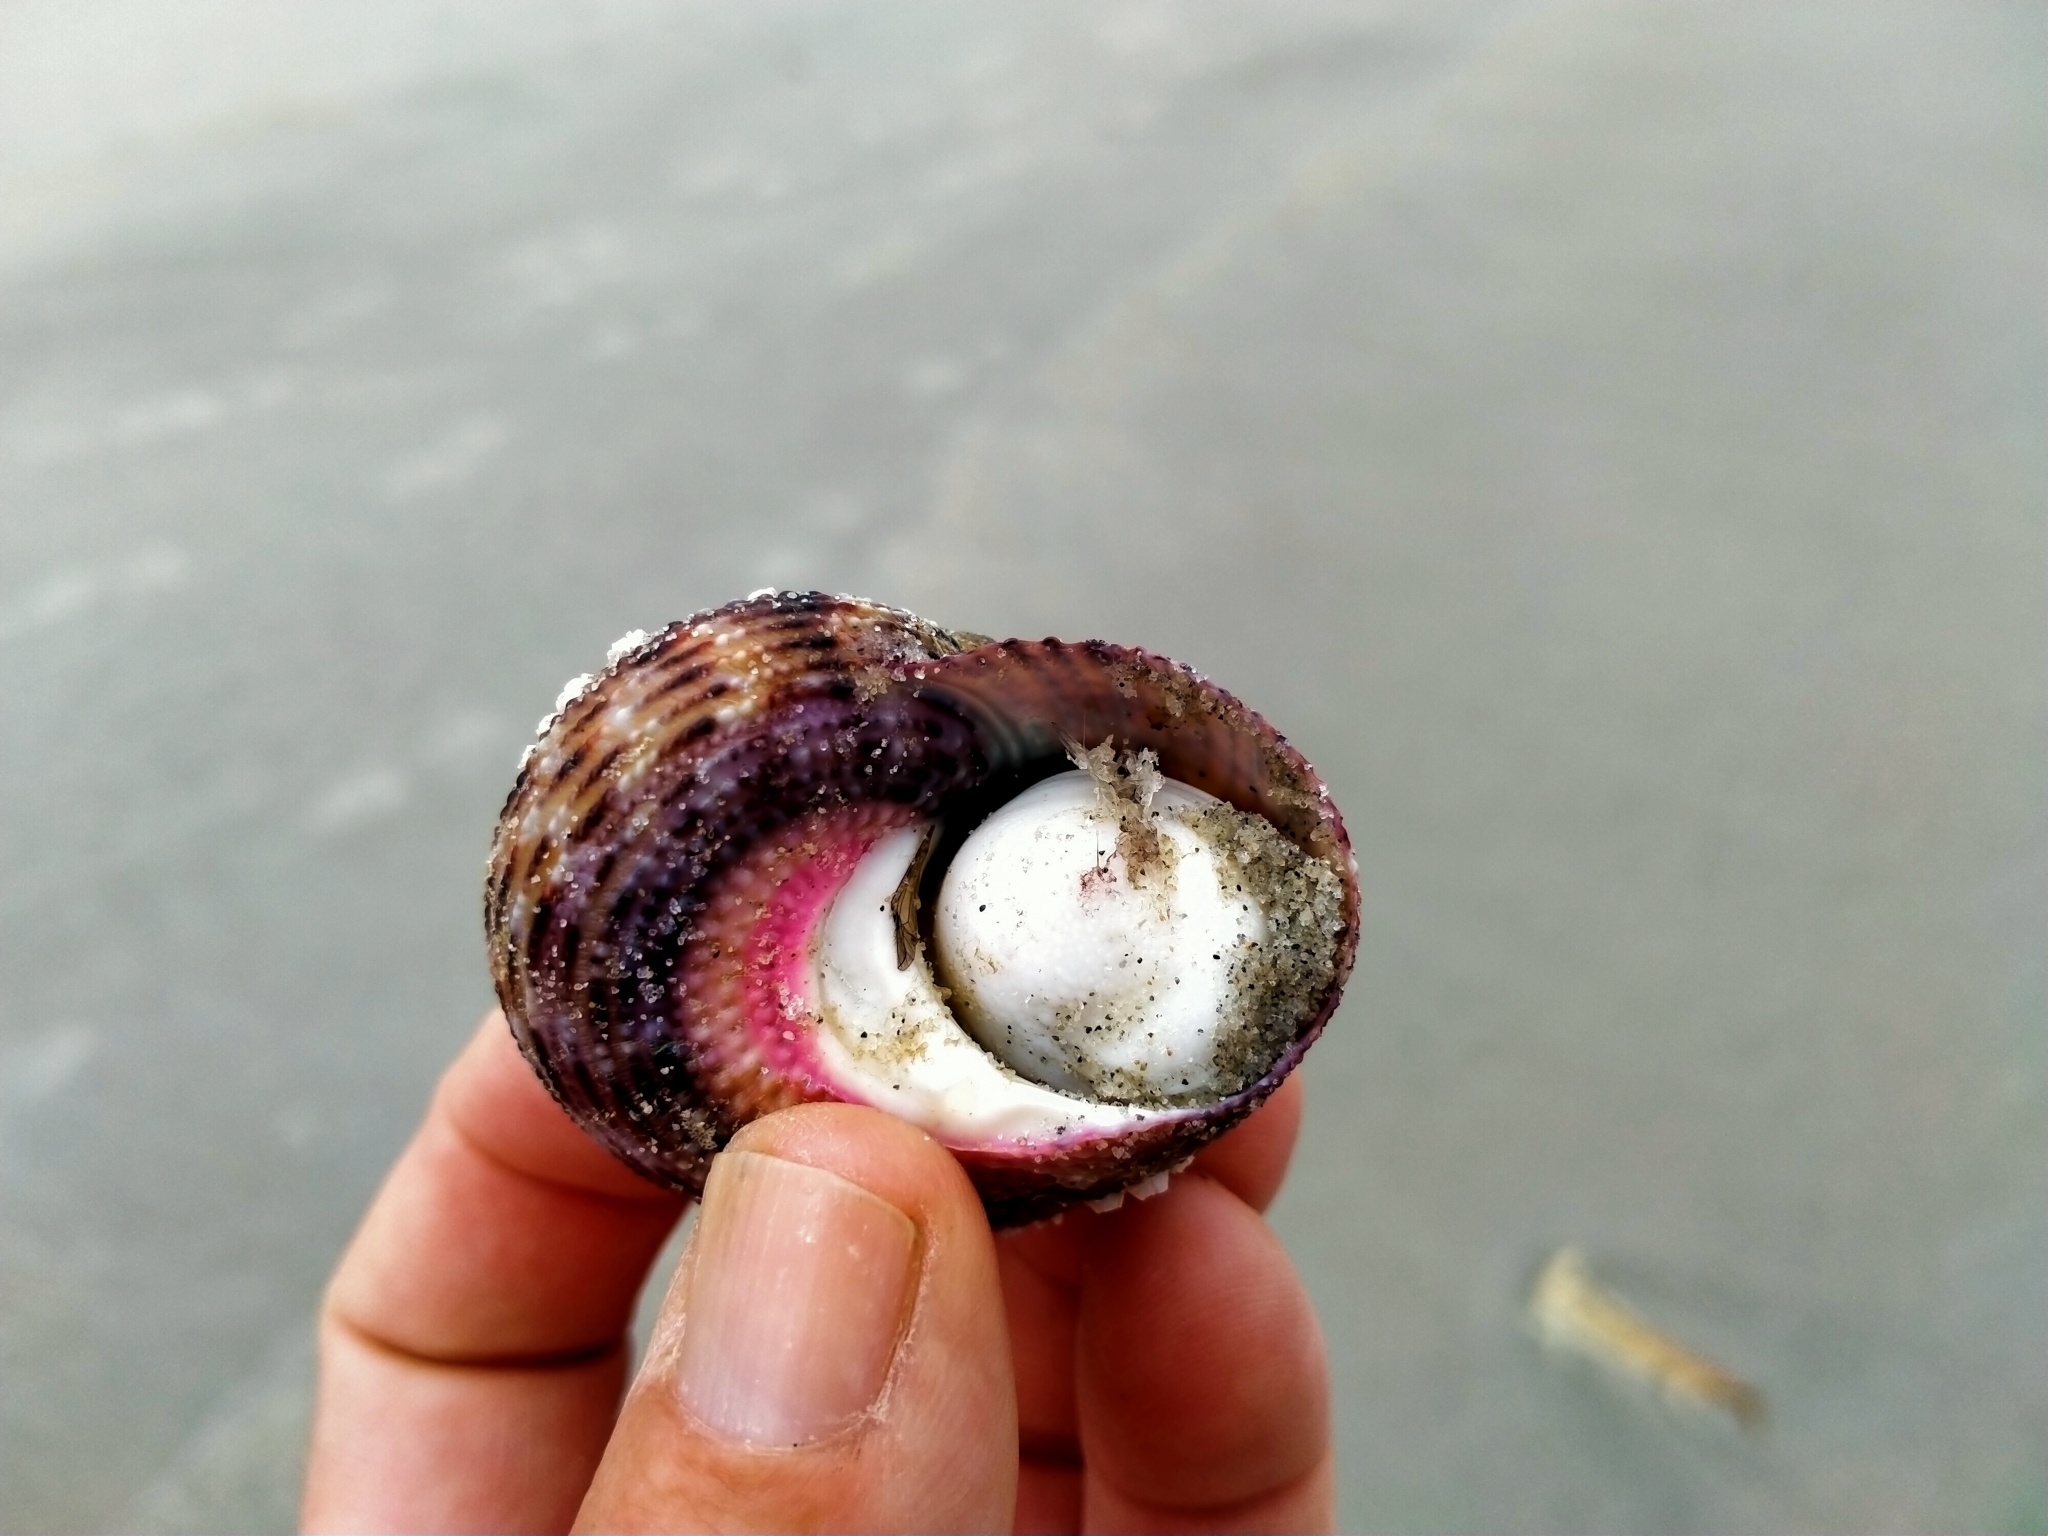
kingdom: Animalia
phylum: Mollusca
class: Gastropoda
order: Trochida
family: Turbinidae
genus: Modelia
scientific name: Modelia granosa
